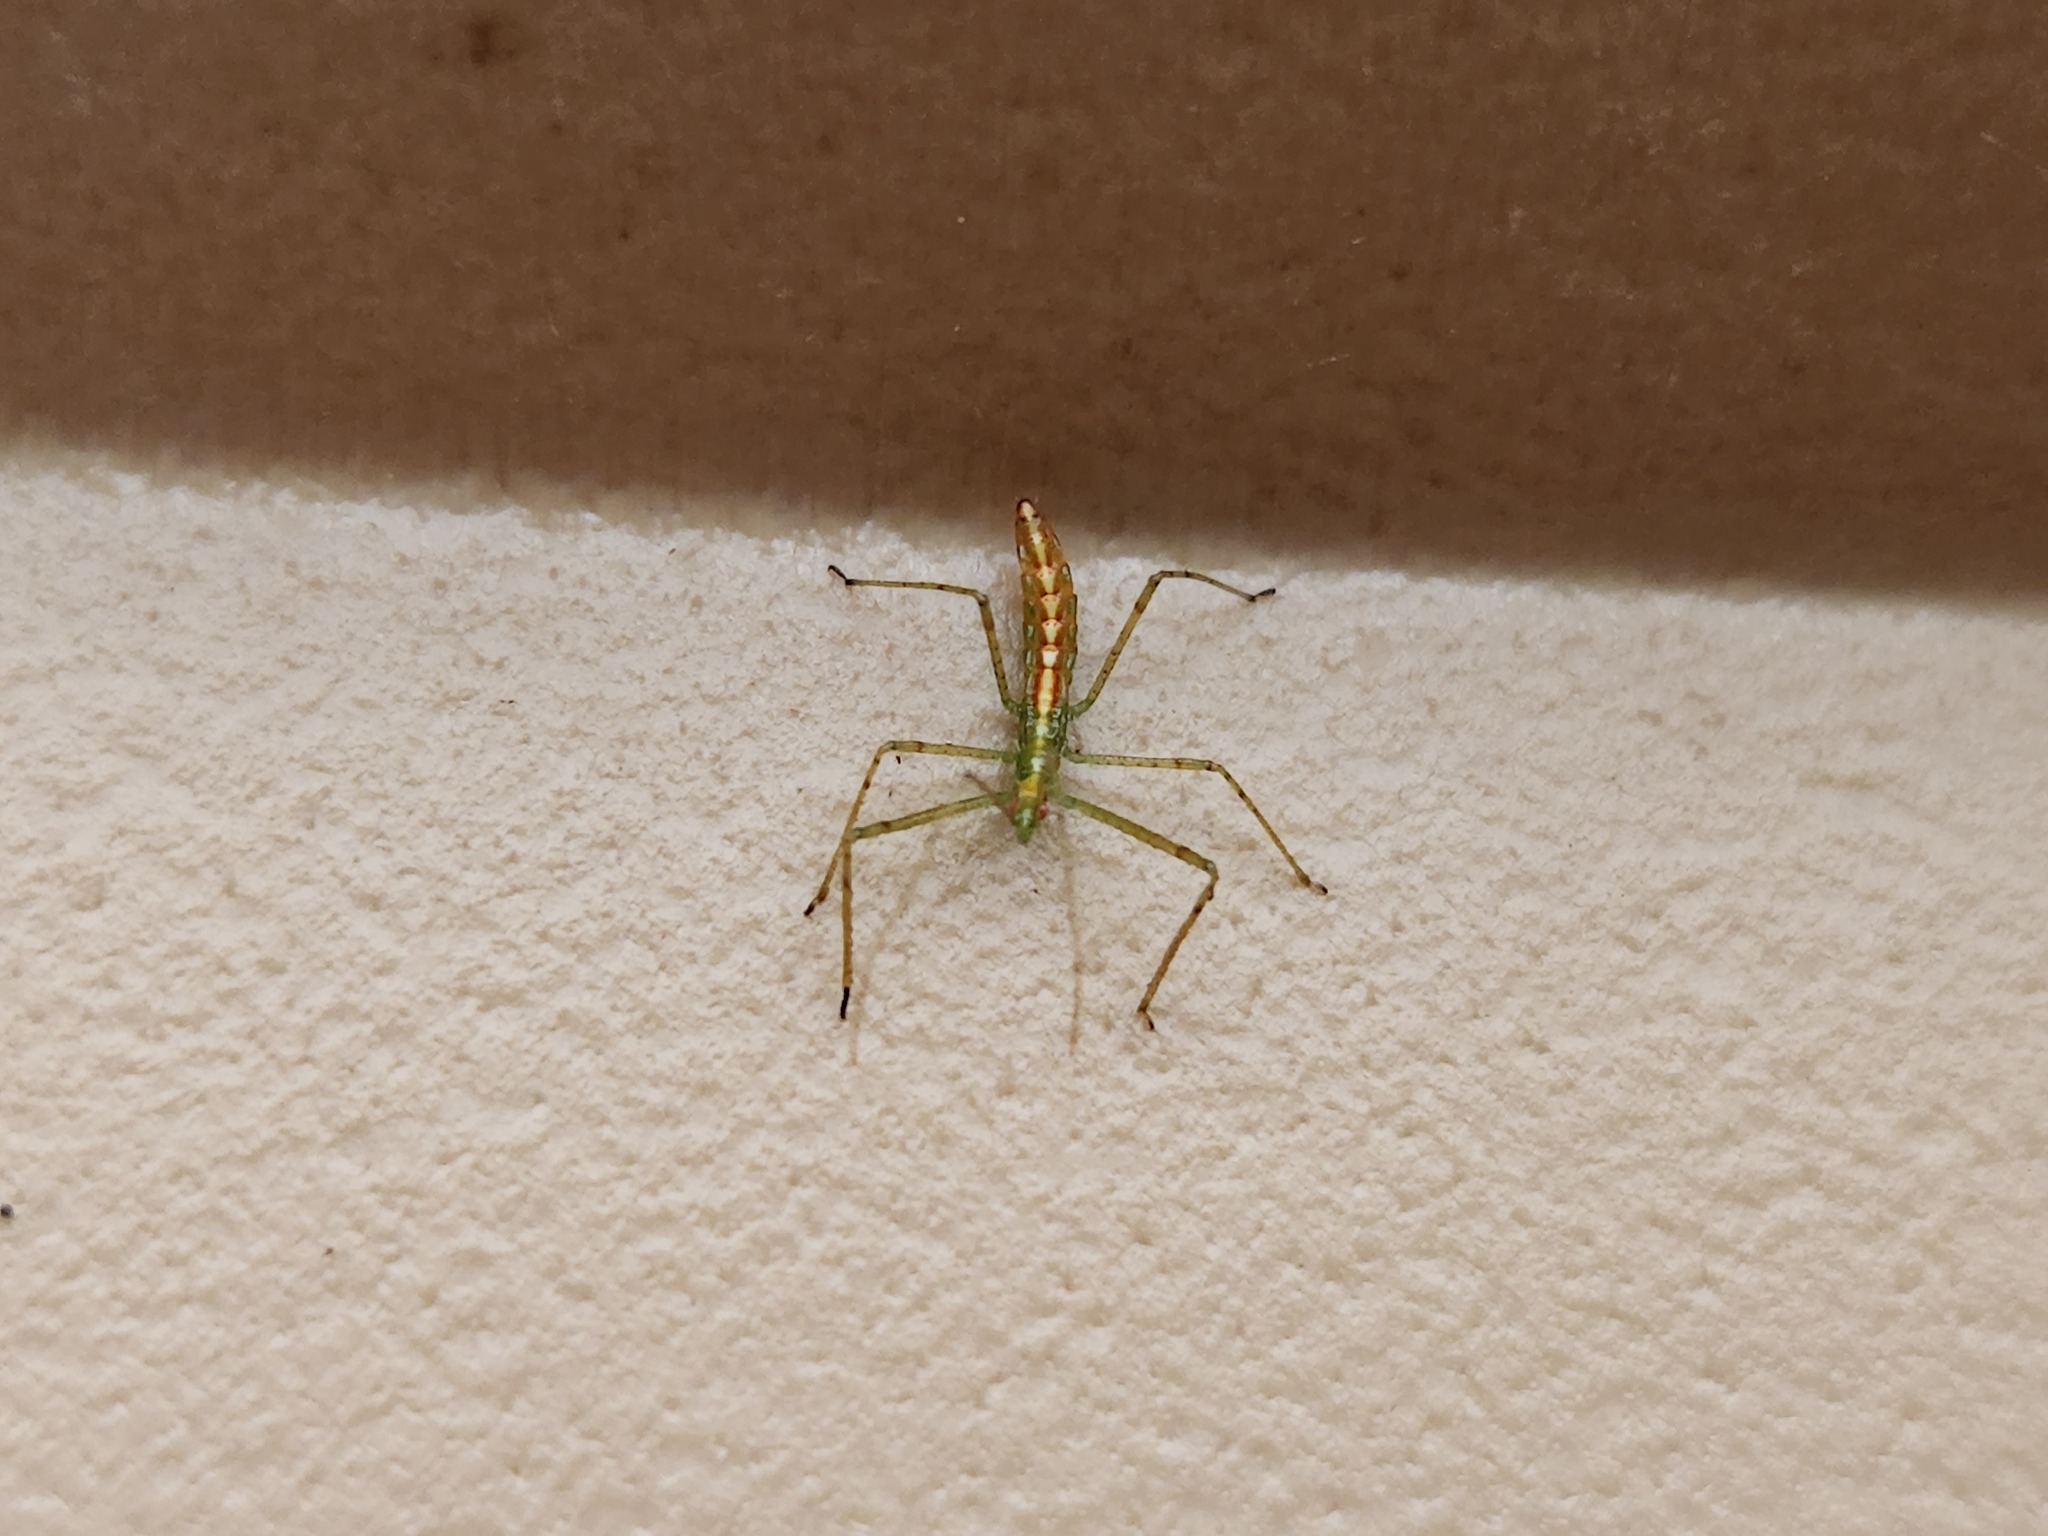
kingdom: Animalia
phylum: Arthropoda
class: Insecta
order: Hemiptera
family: Reduviidae
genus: Zelus
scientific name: Zelus luridus
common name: Pale green assassin bug
